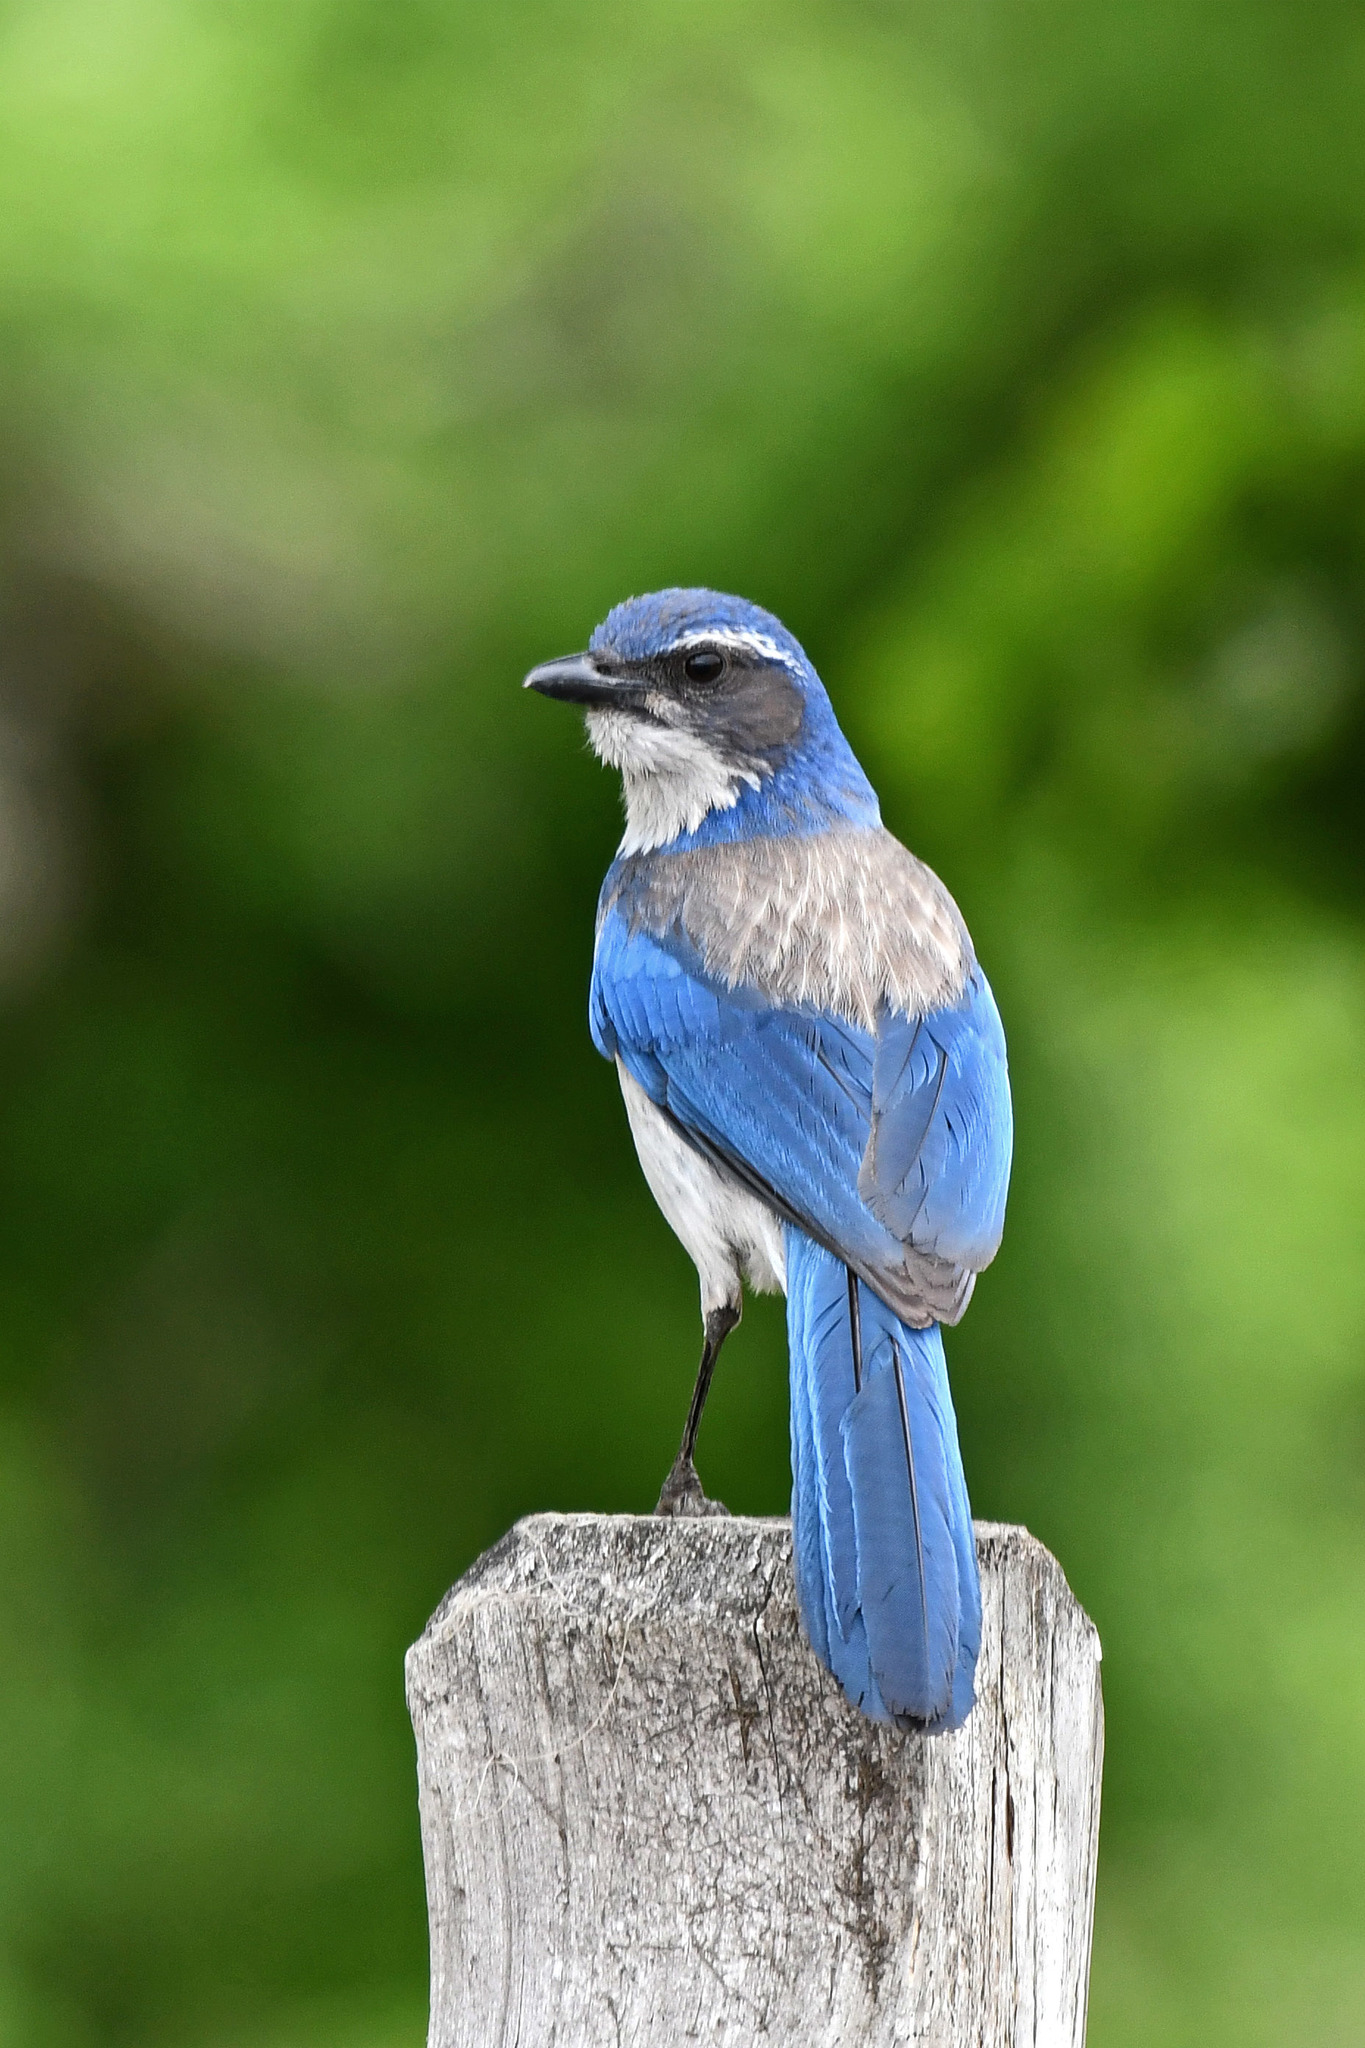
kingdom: Animalia
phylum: Chordata
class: Aves
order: Passeriformes
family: Corvidae
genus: Aphelocoma
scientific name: Aphelocoma californica
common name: California scrub-jay
